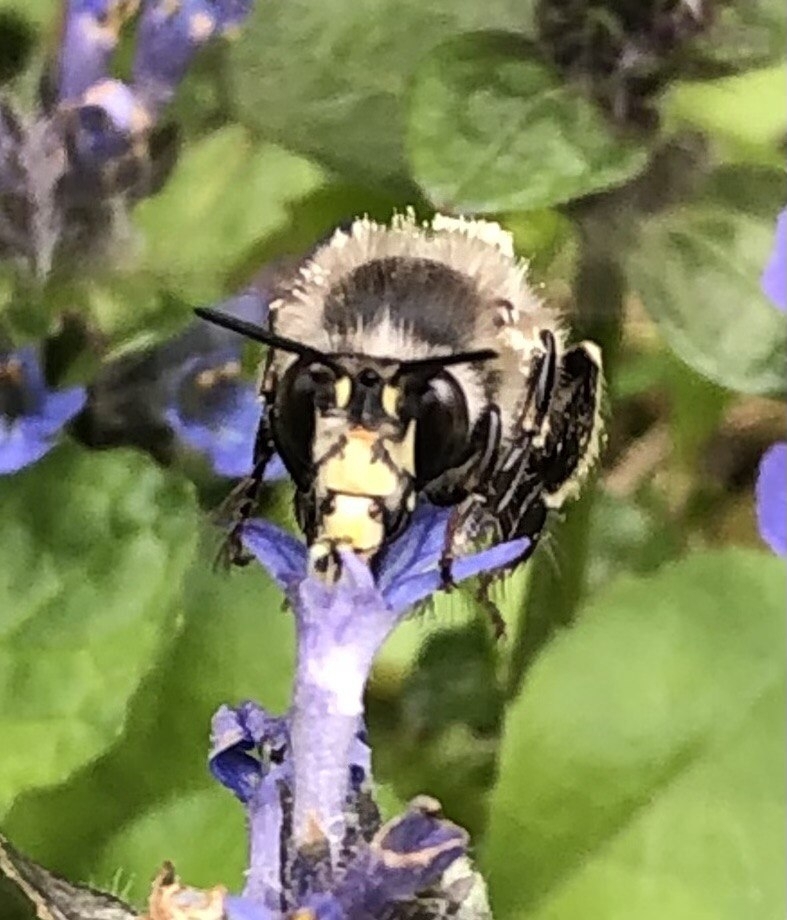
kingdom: Animalia
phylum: Arthropoda
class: Insecta
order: Hymenoptera
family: Apidae
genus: Anthophora
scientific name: Anthophora plumipes
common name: Hairy-footed flower bee
